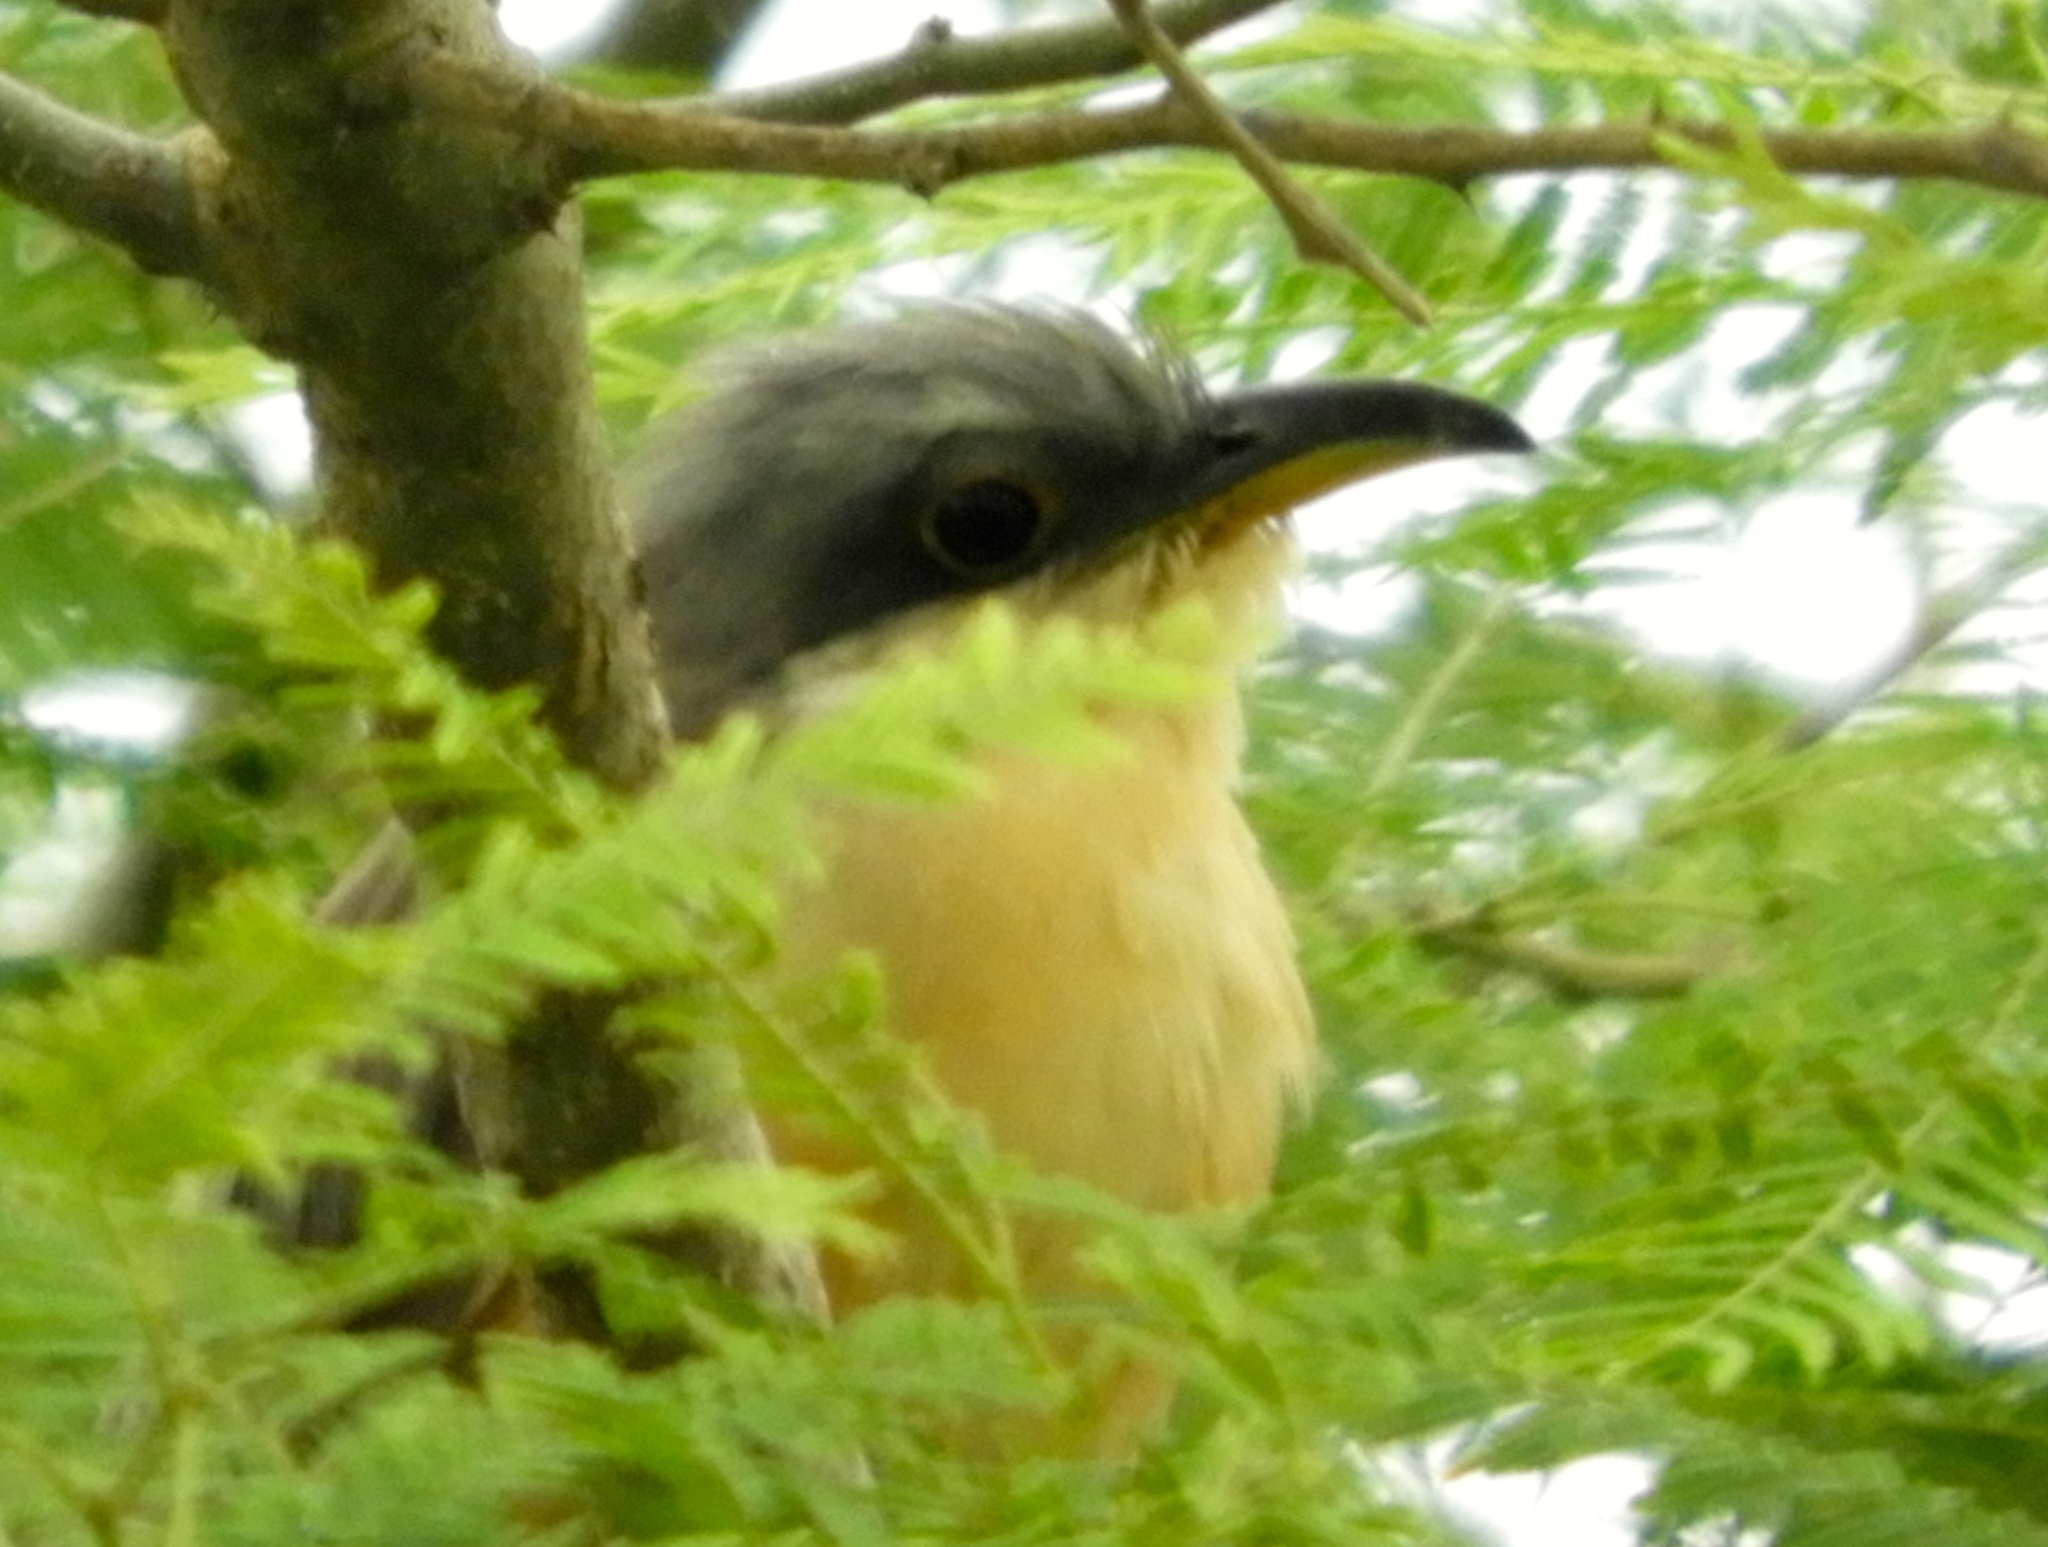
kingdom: Animalia
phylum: Chordata
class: Aves
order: Cuculiformes
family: Cuculidae
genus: Coccyzus
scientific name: Coccyzus minor
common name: Mangrove cuckoo
